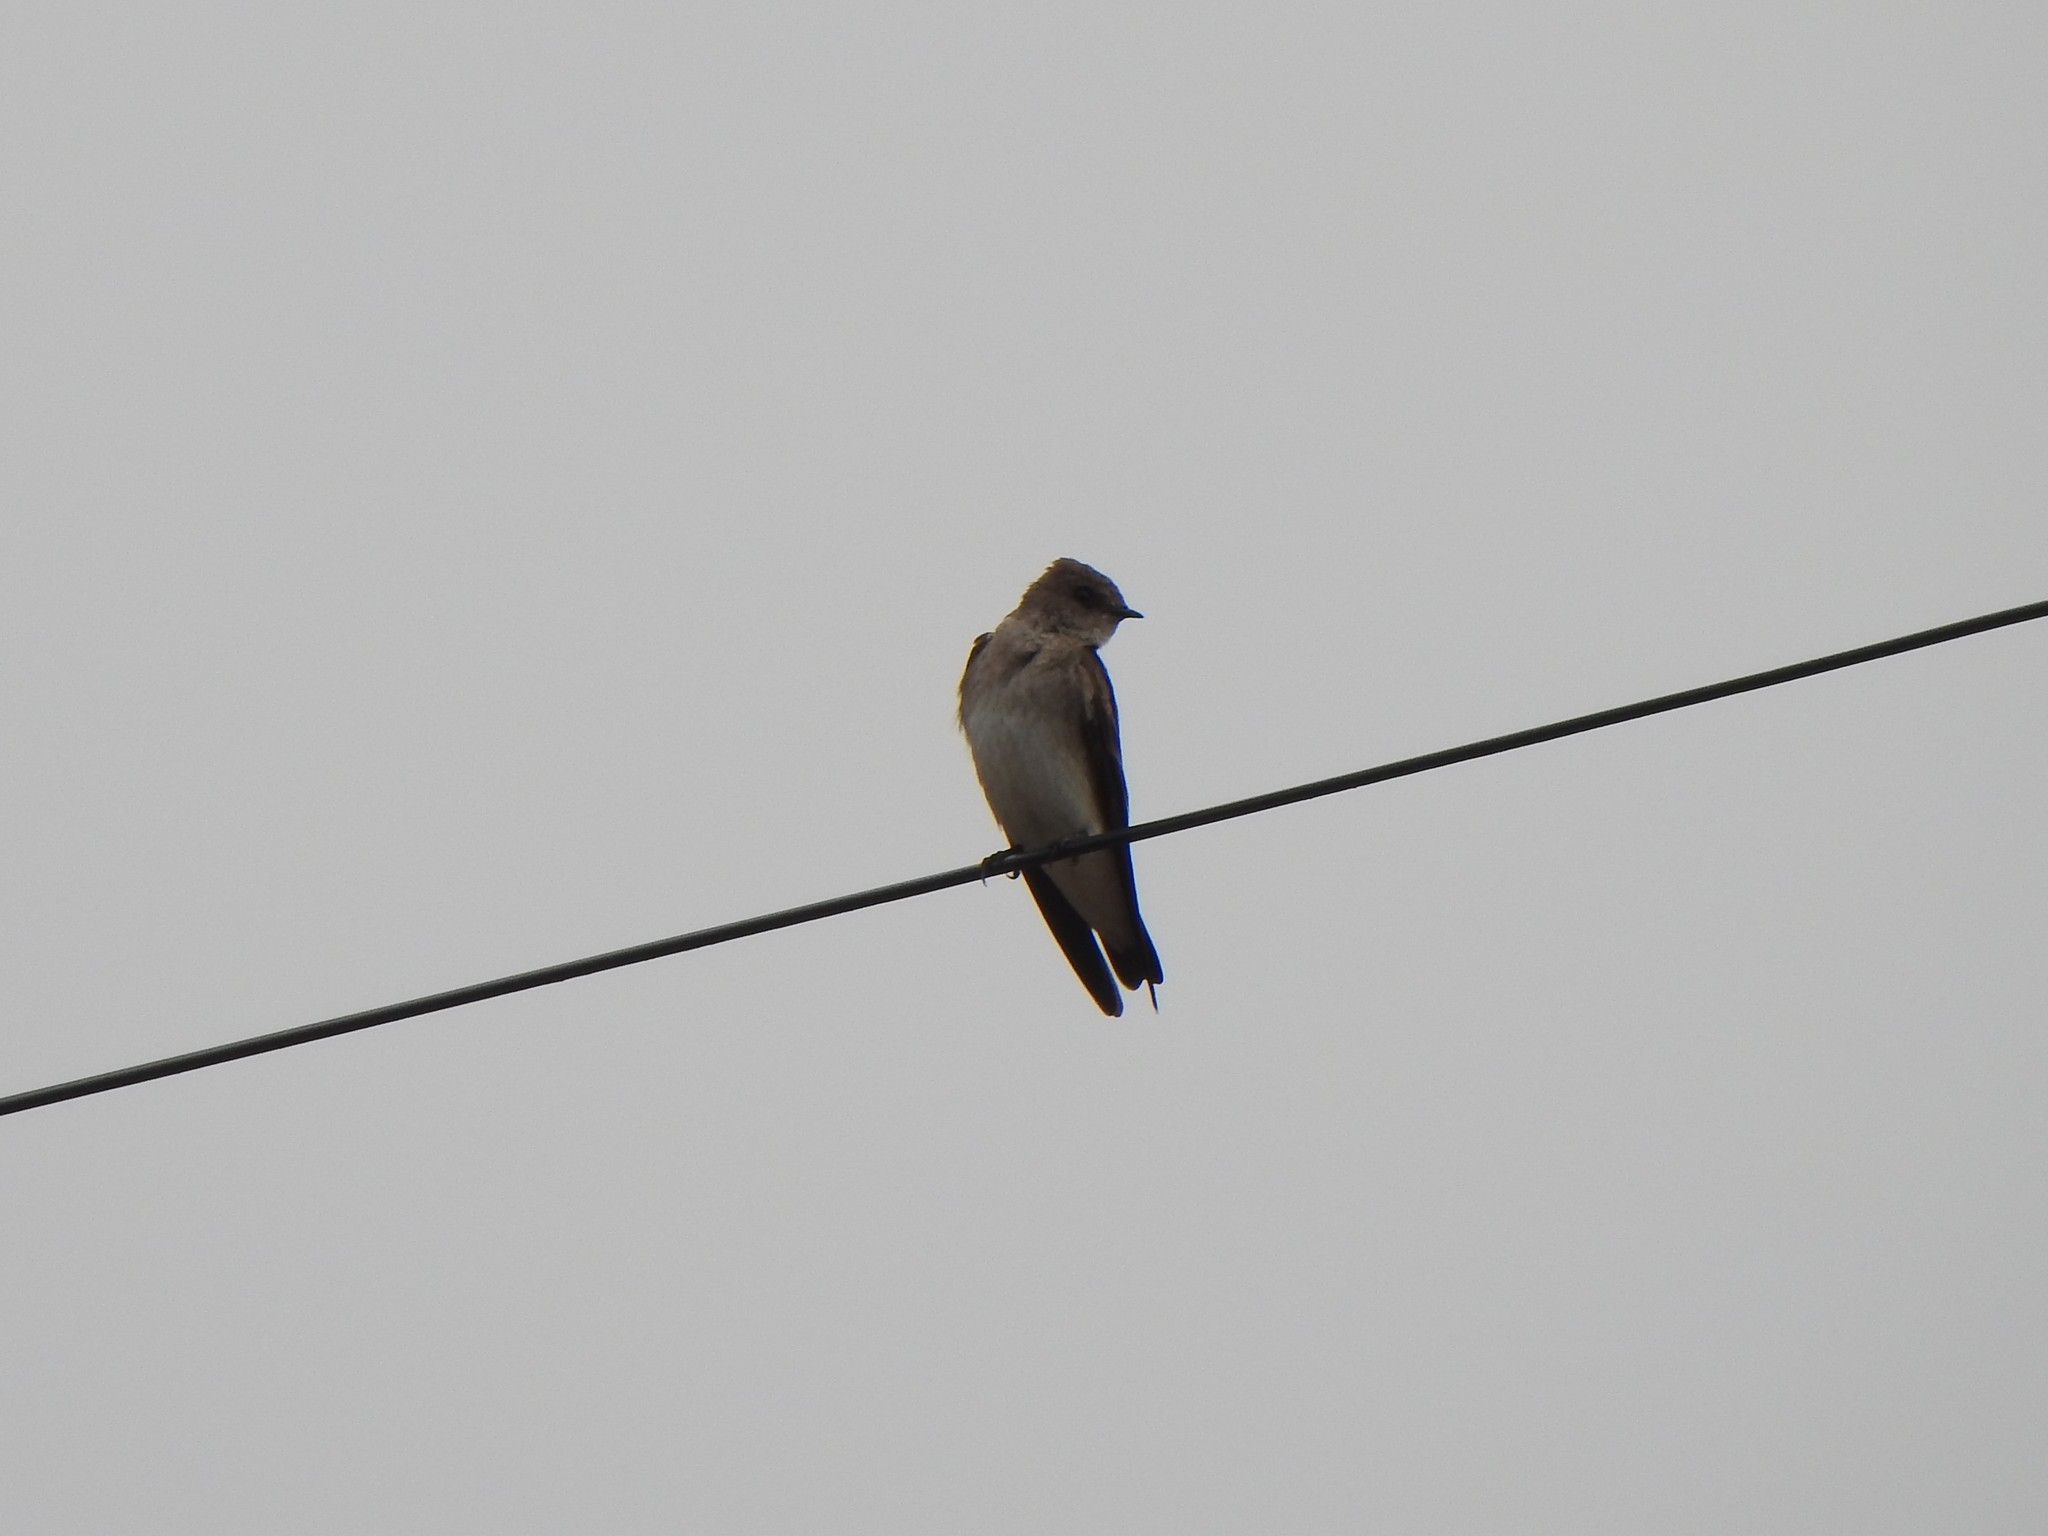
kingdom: Animalia
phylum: Chordata
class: Aves
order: Passeriformes
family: Hirundinidae
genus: Stelgidopteryx
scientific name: Stelgidopteryx serripennis
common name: Northern rough-winged swallow
